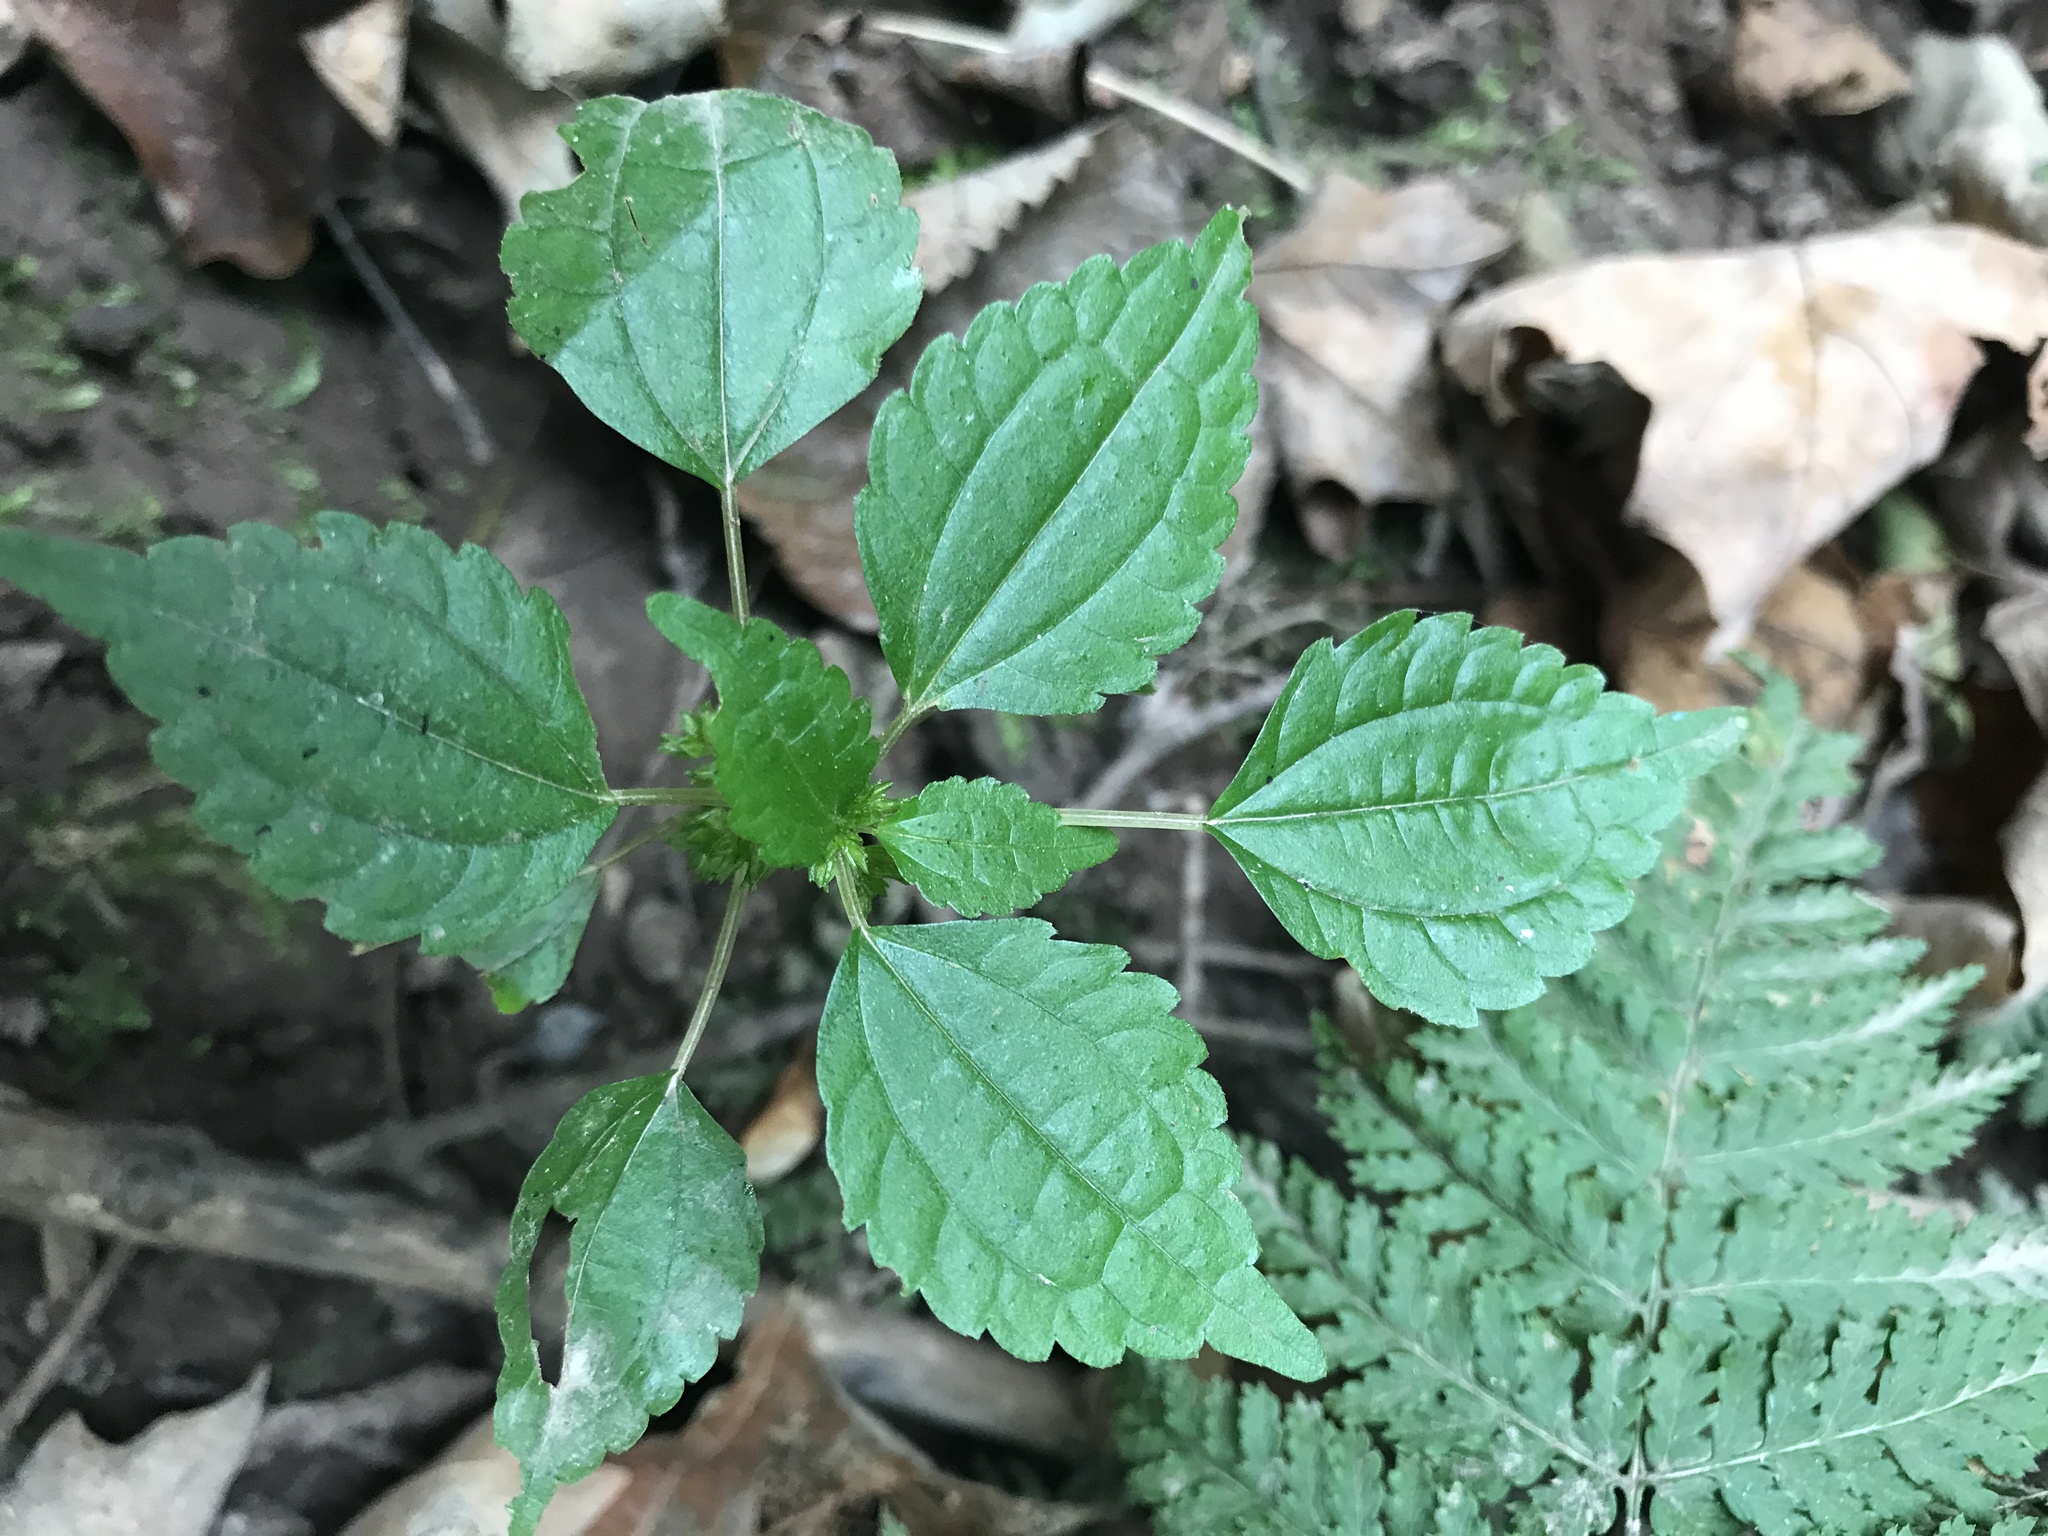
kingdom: Plantae
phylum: Tracheophyta
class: Magnoliopsida
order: Rosales
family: Urticaceae
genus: Pilea
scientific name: Pilea pumila
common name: Clearweed
